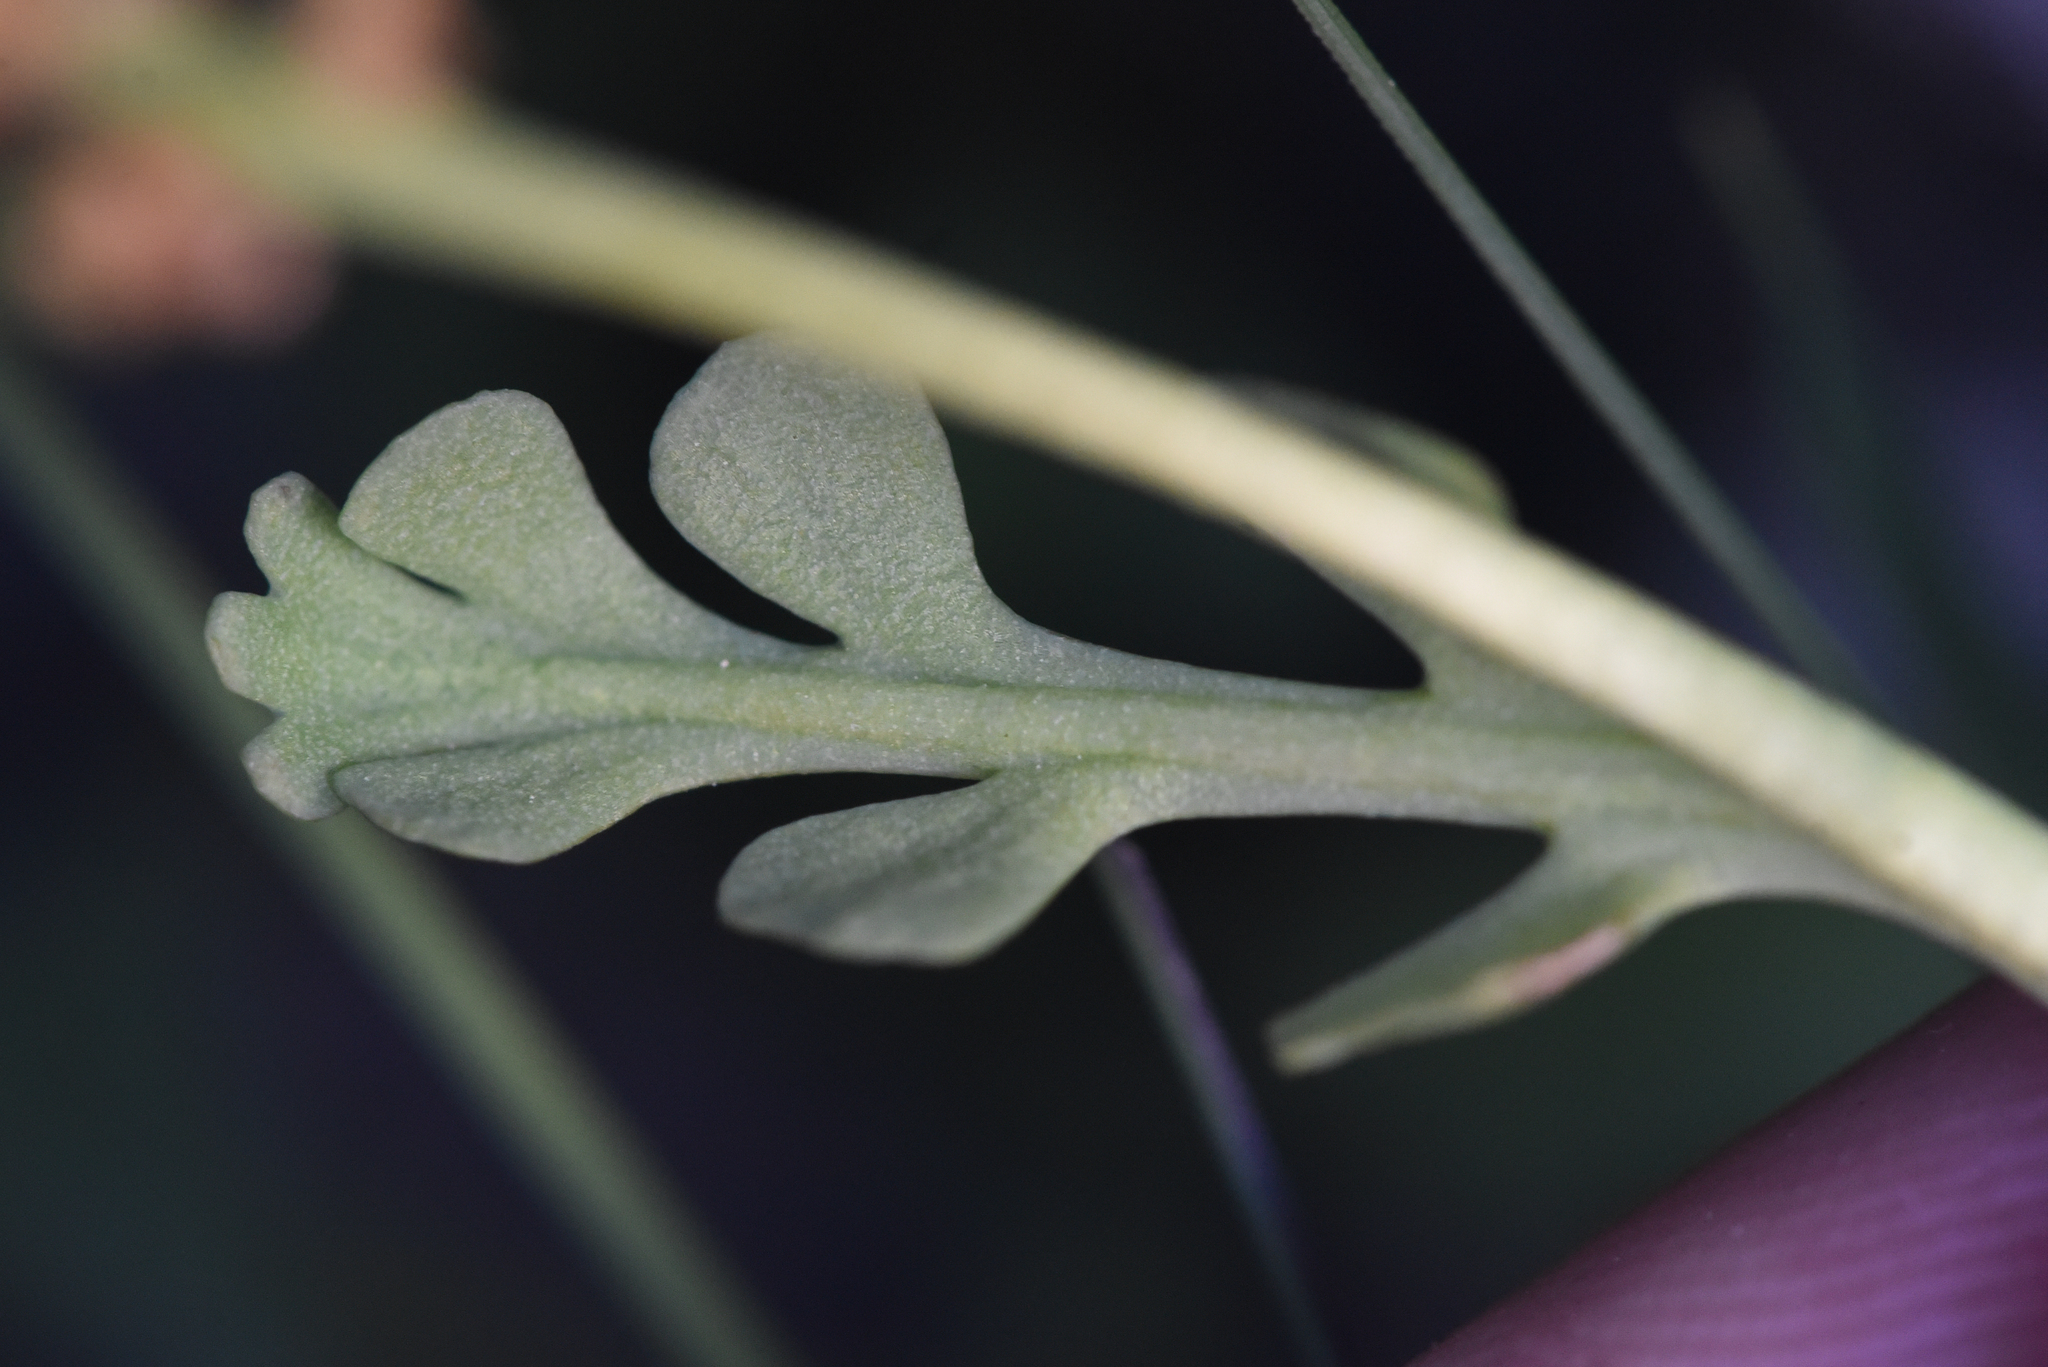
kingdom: Plantae
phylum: Tracheophyta
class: Polypodiopsida
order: Ophioglossales
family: Ophioglossaceae
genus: Botrychium
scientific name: Botrychium minganense
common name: Mingan grapefern
